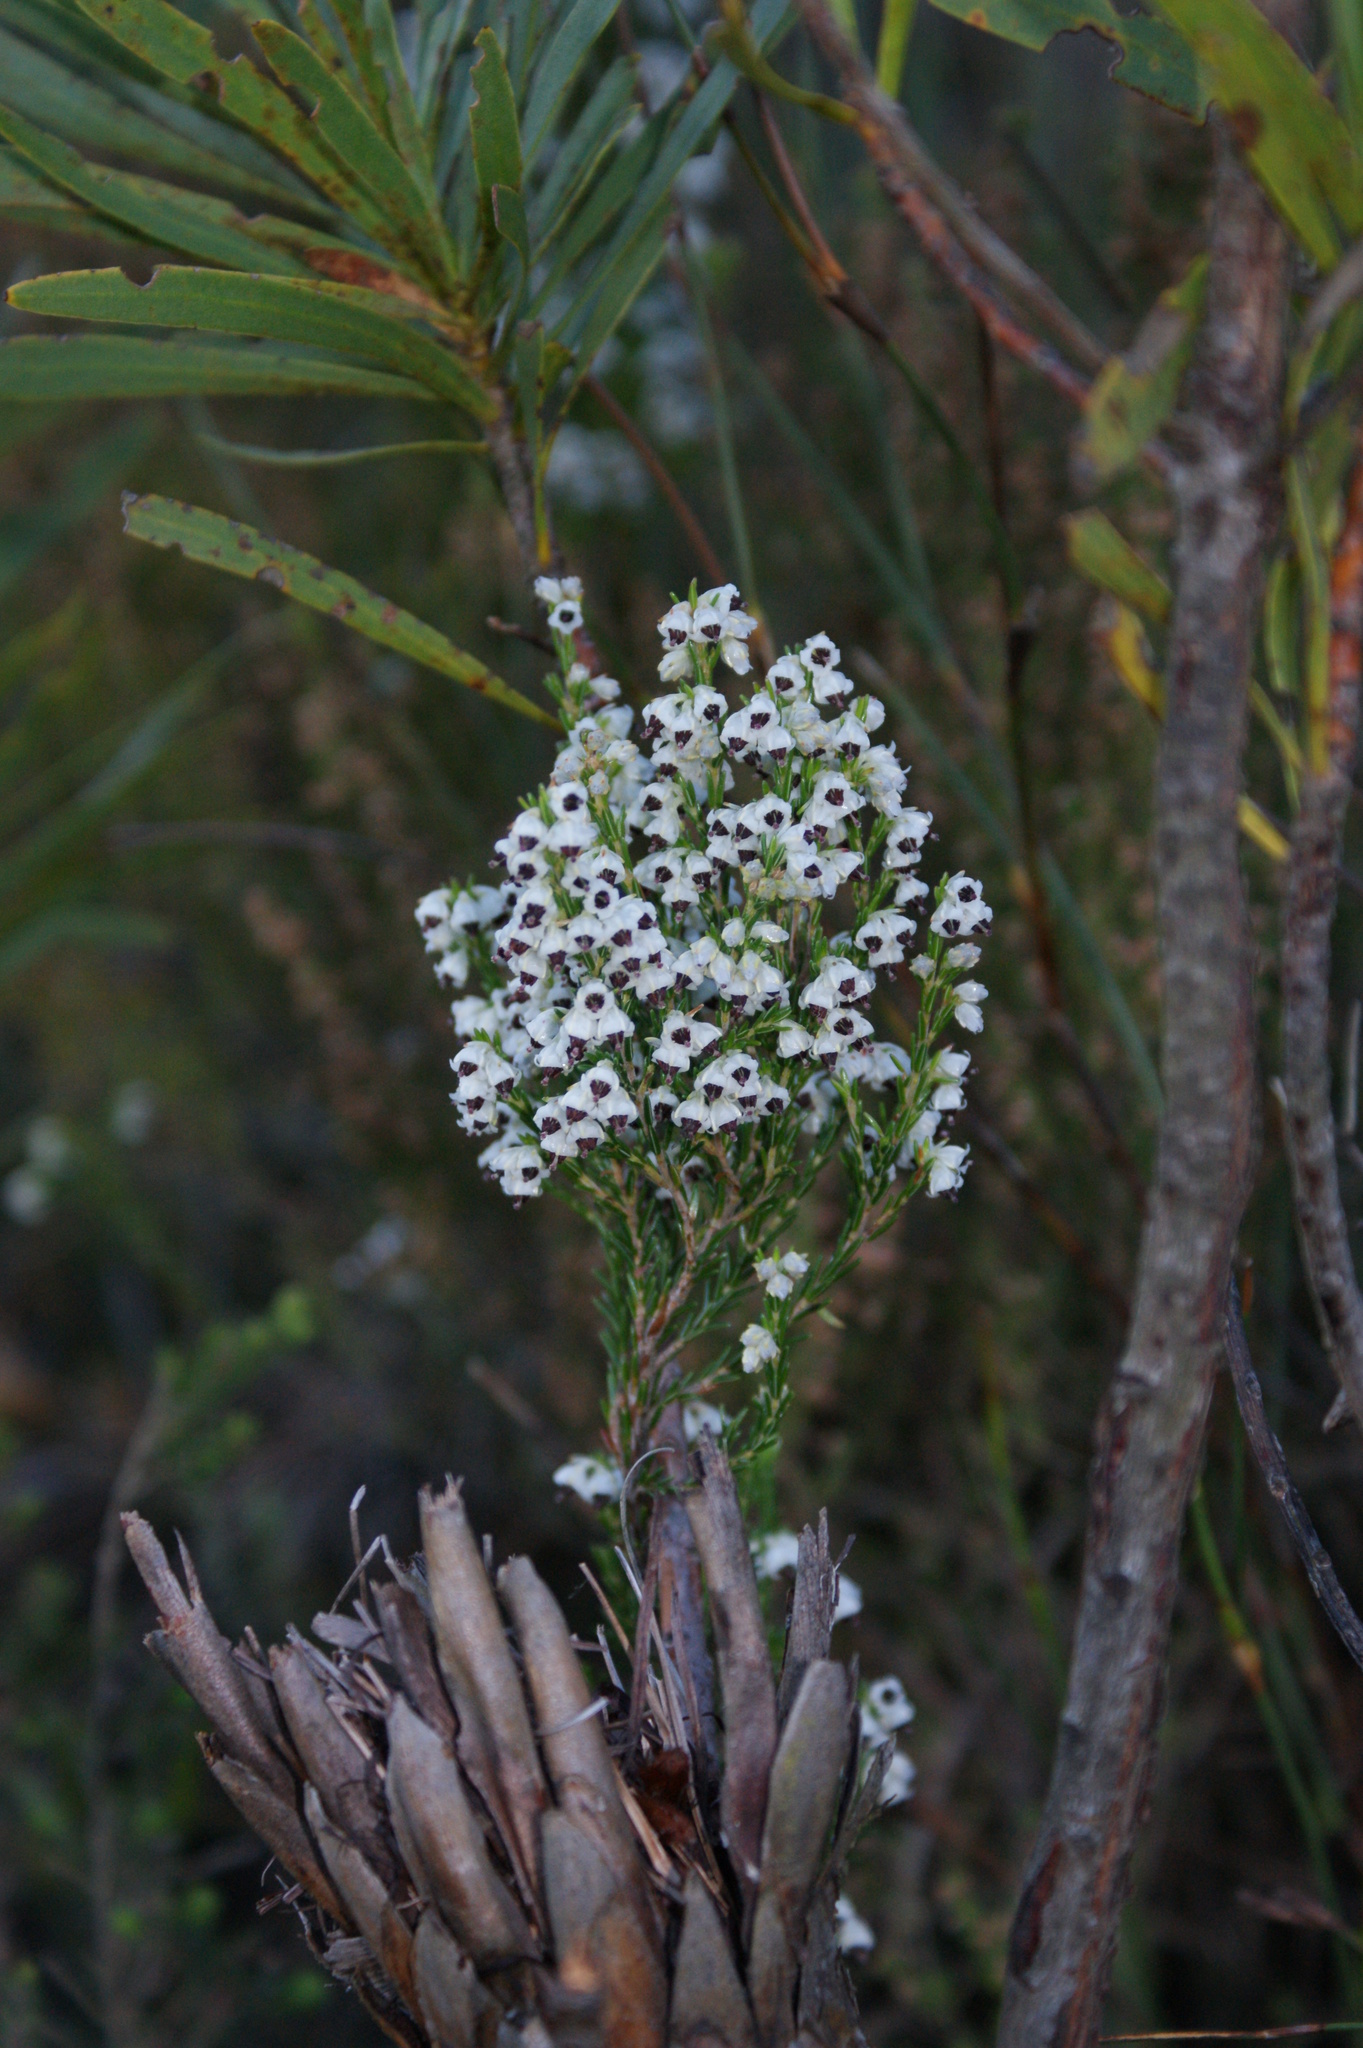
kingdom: Plantae
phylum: Tracheophyta
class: Magnoliopsida
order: Ericales
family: Ericaceae
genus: Erica
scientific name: Erica calycina
